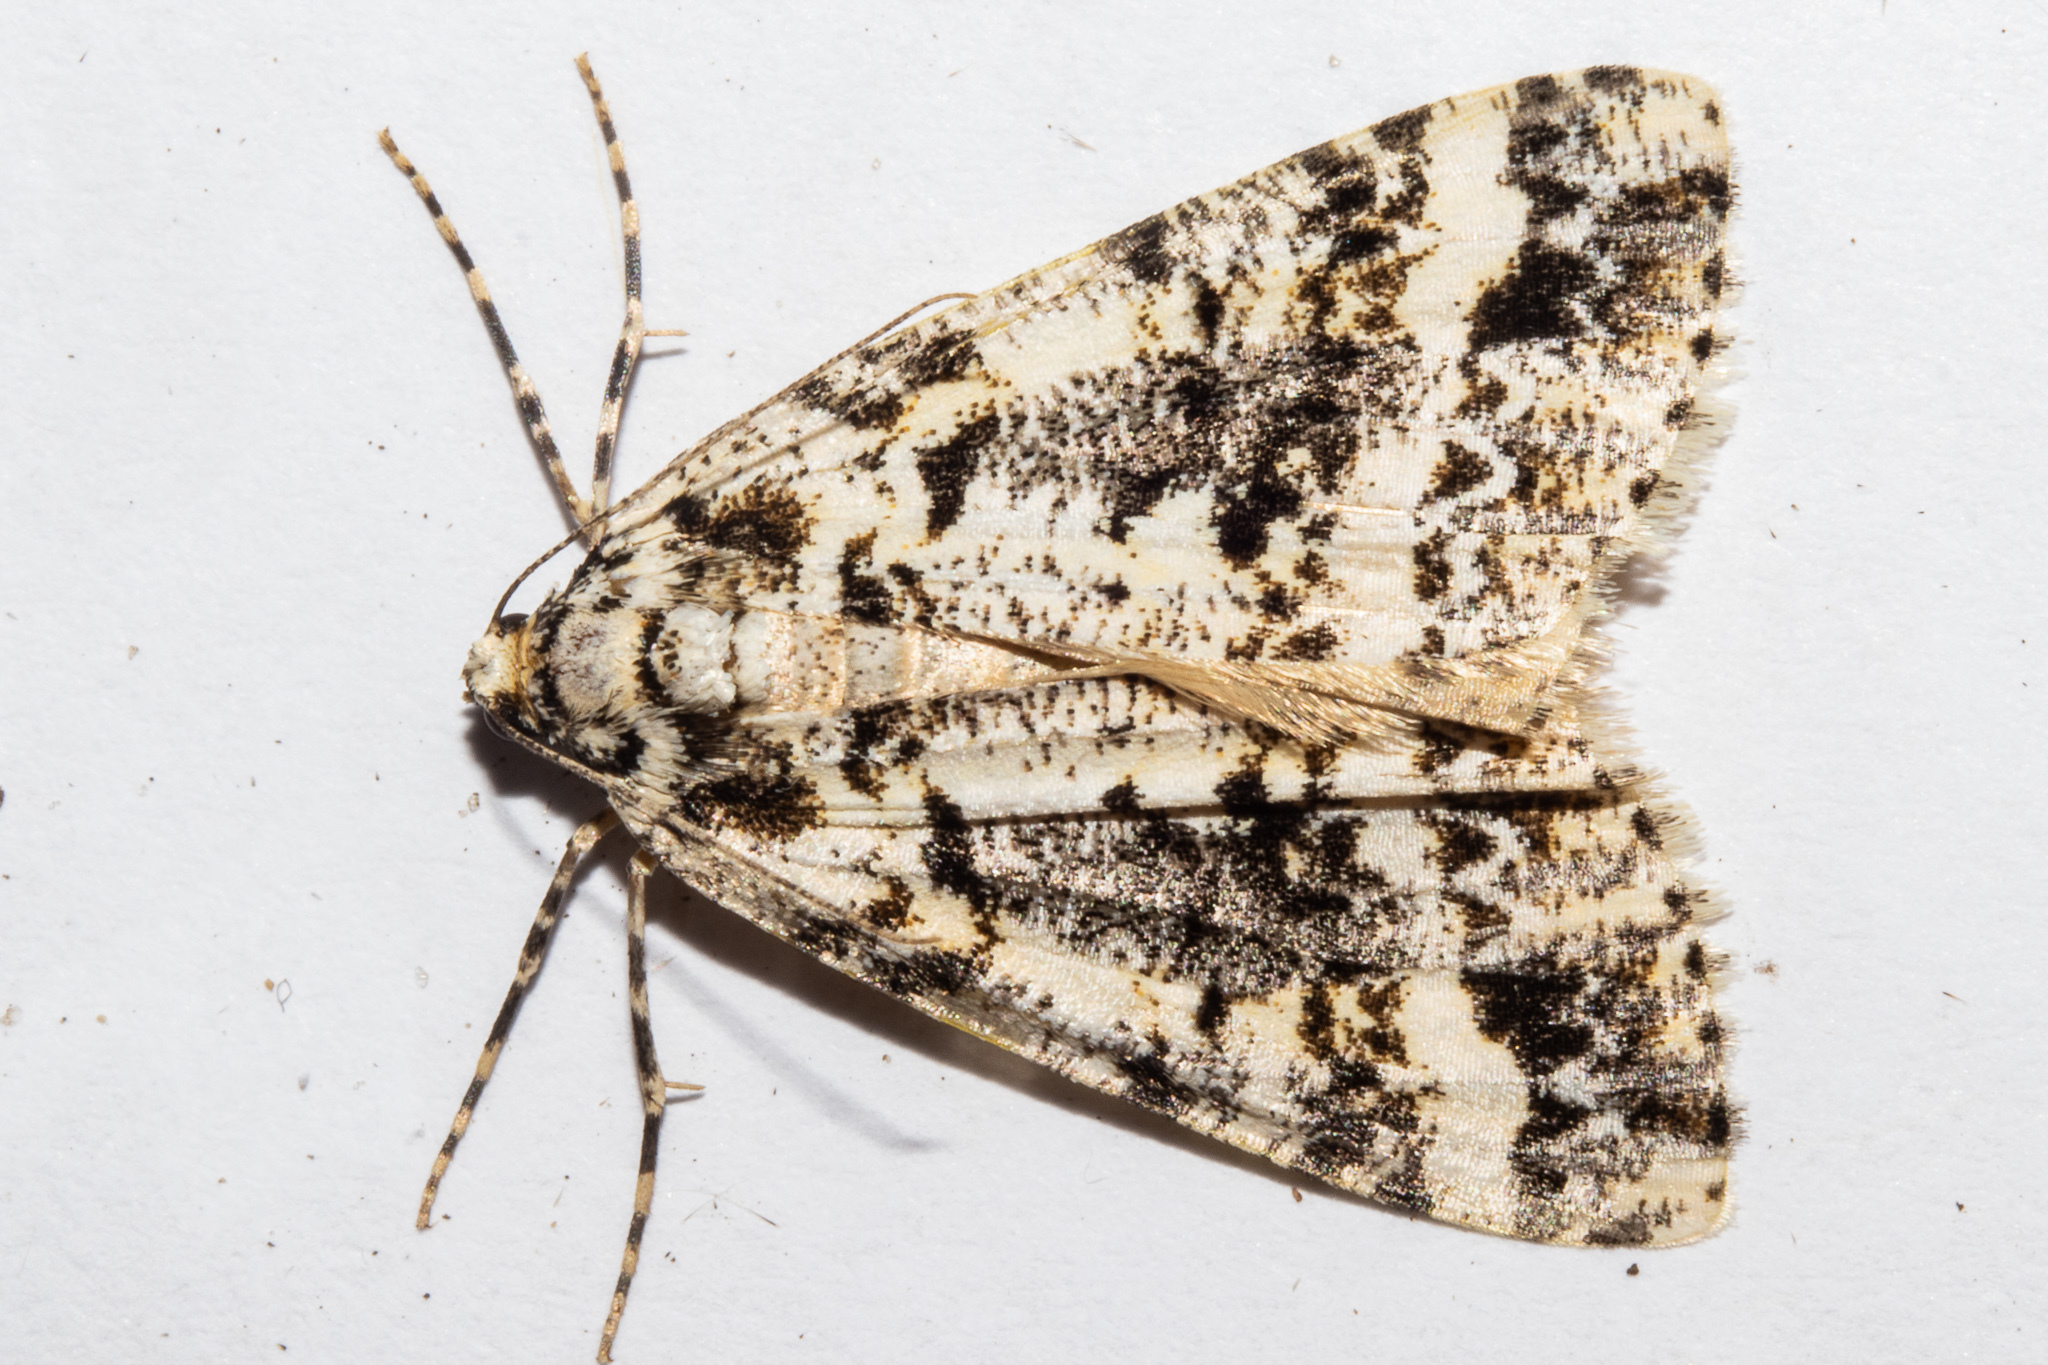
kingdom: Animalia
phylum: Arthropoda
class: Insecta
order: Lepidoptera
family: Geometridae
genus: Pseudocoremia
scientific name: Pseudocoremia leucelaea
